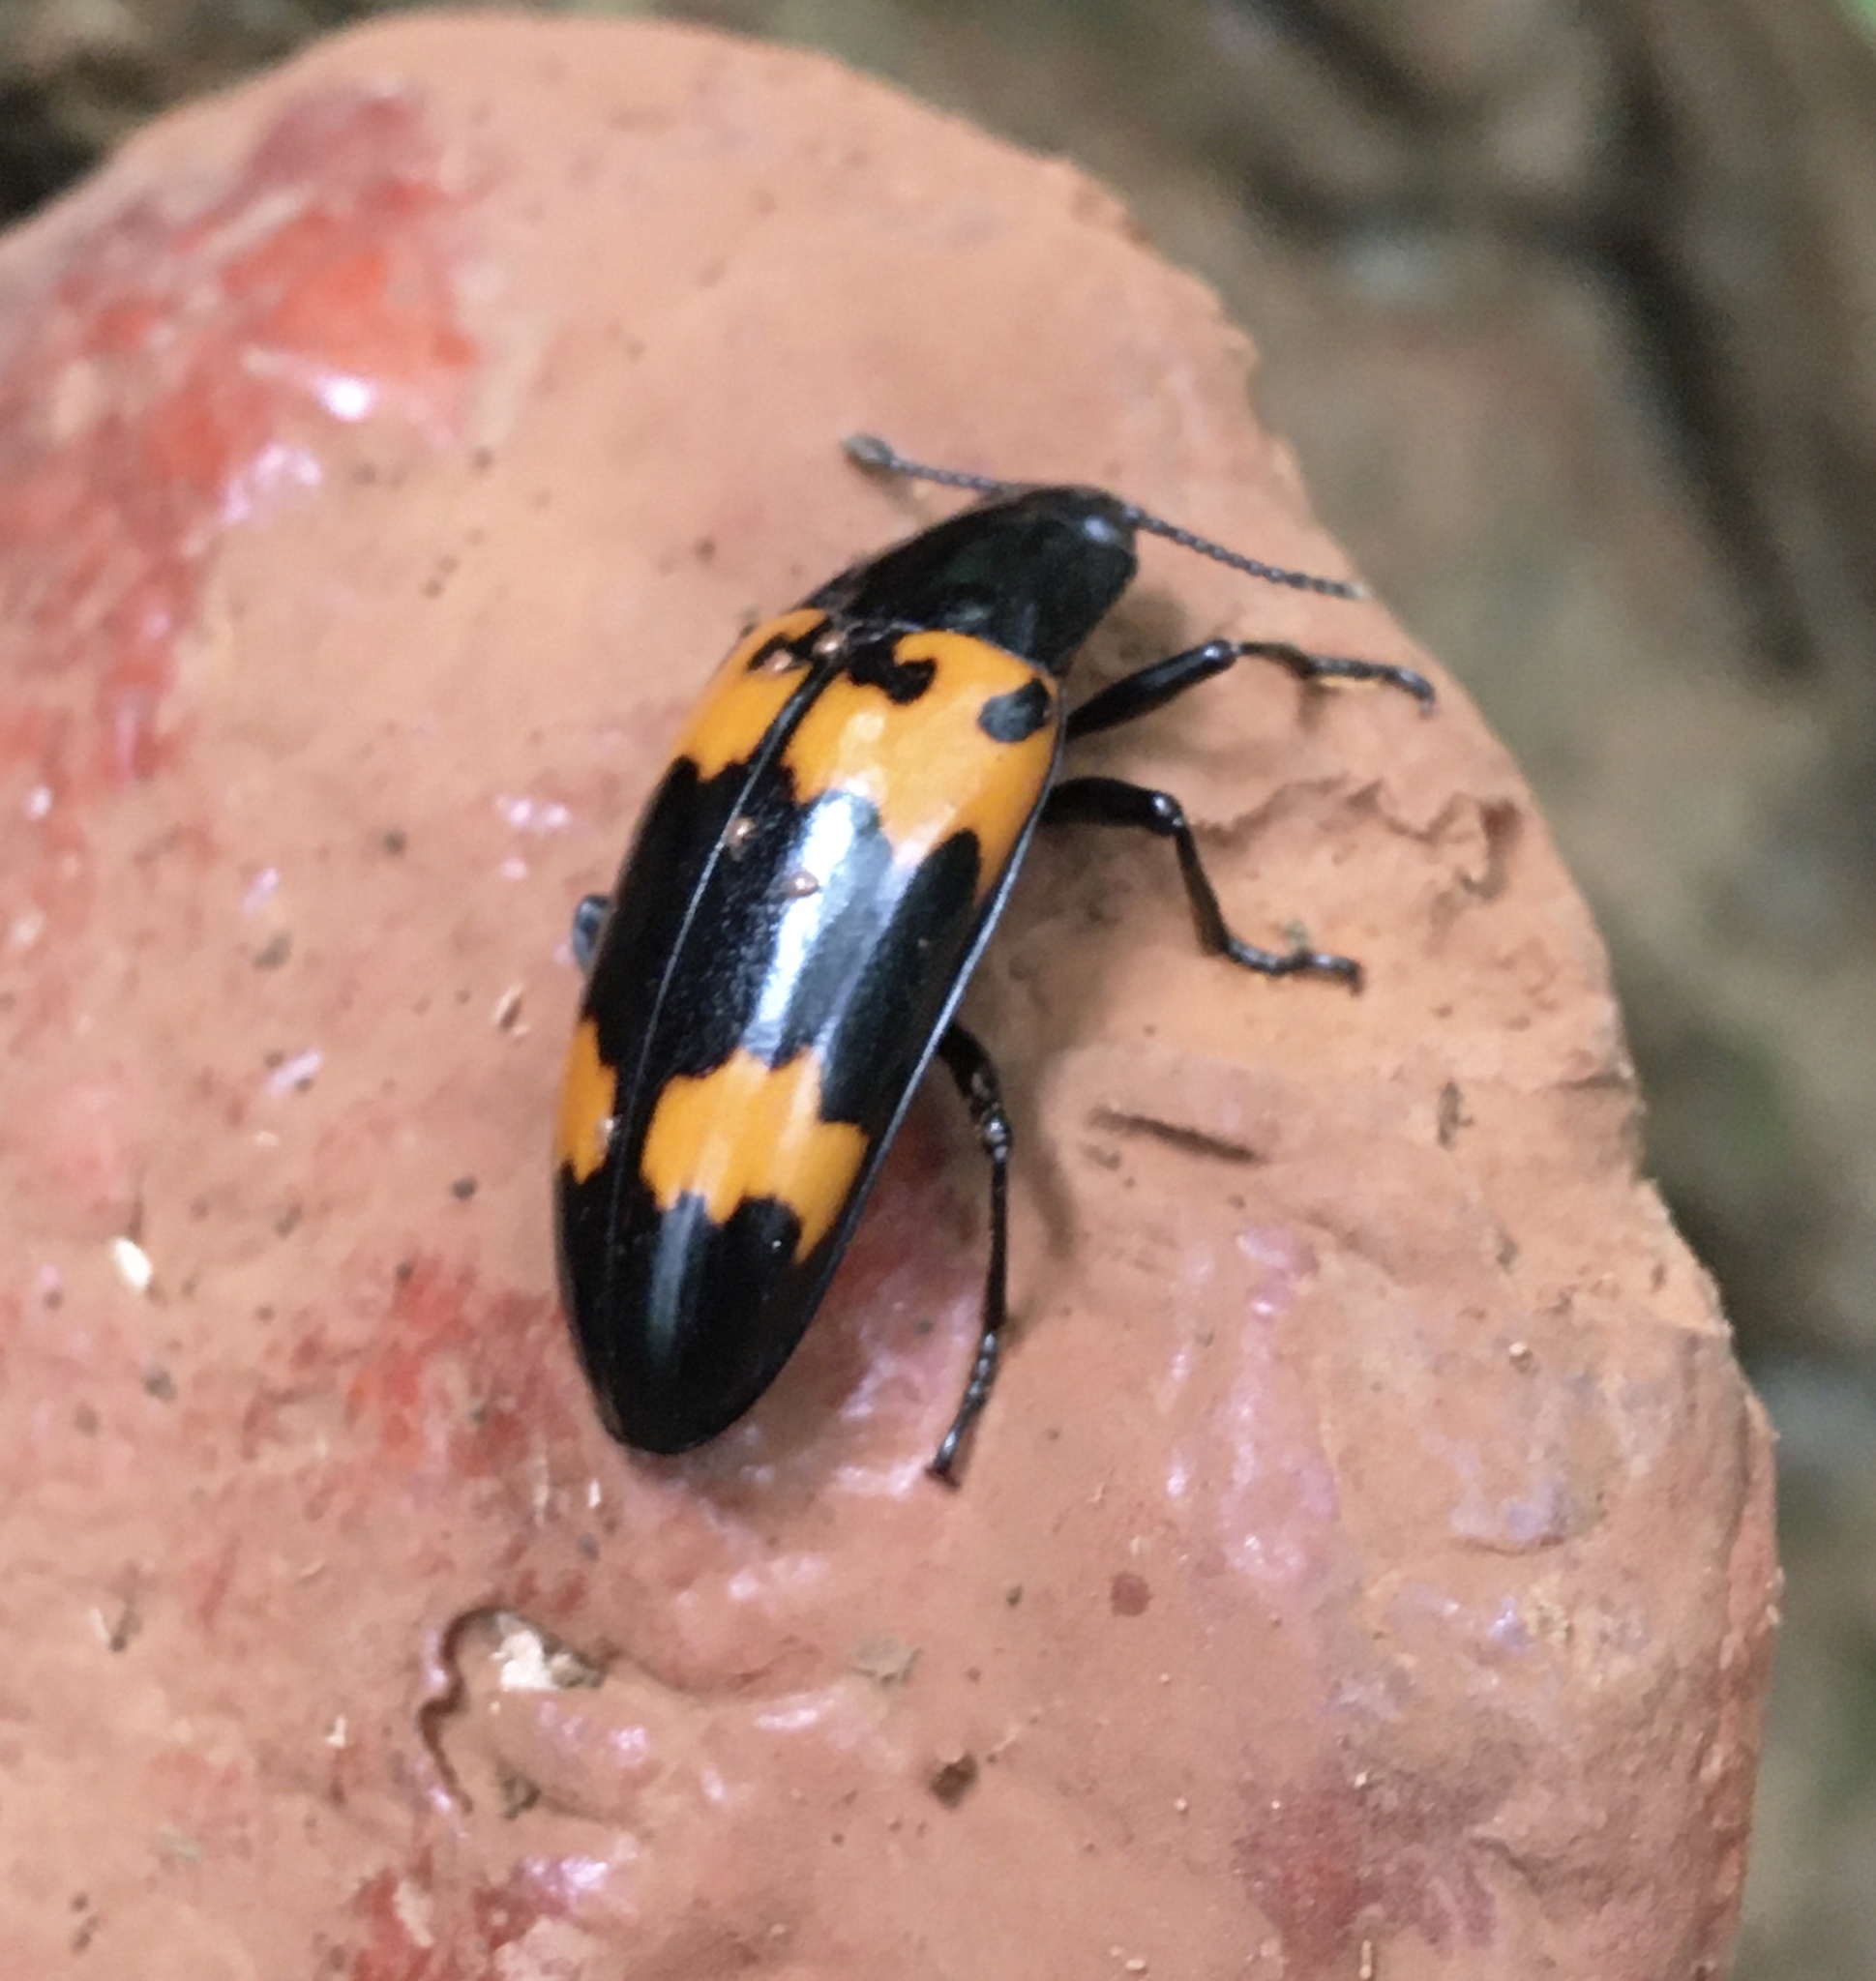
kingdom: Animalia
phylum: Arthropoda
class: Insecta
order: Coleoptera
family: Erotylidae
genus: Megalodacne
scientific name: Megalodacne heros
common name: Pleasing fungus beetle
